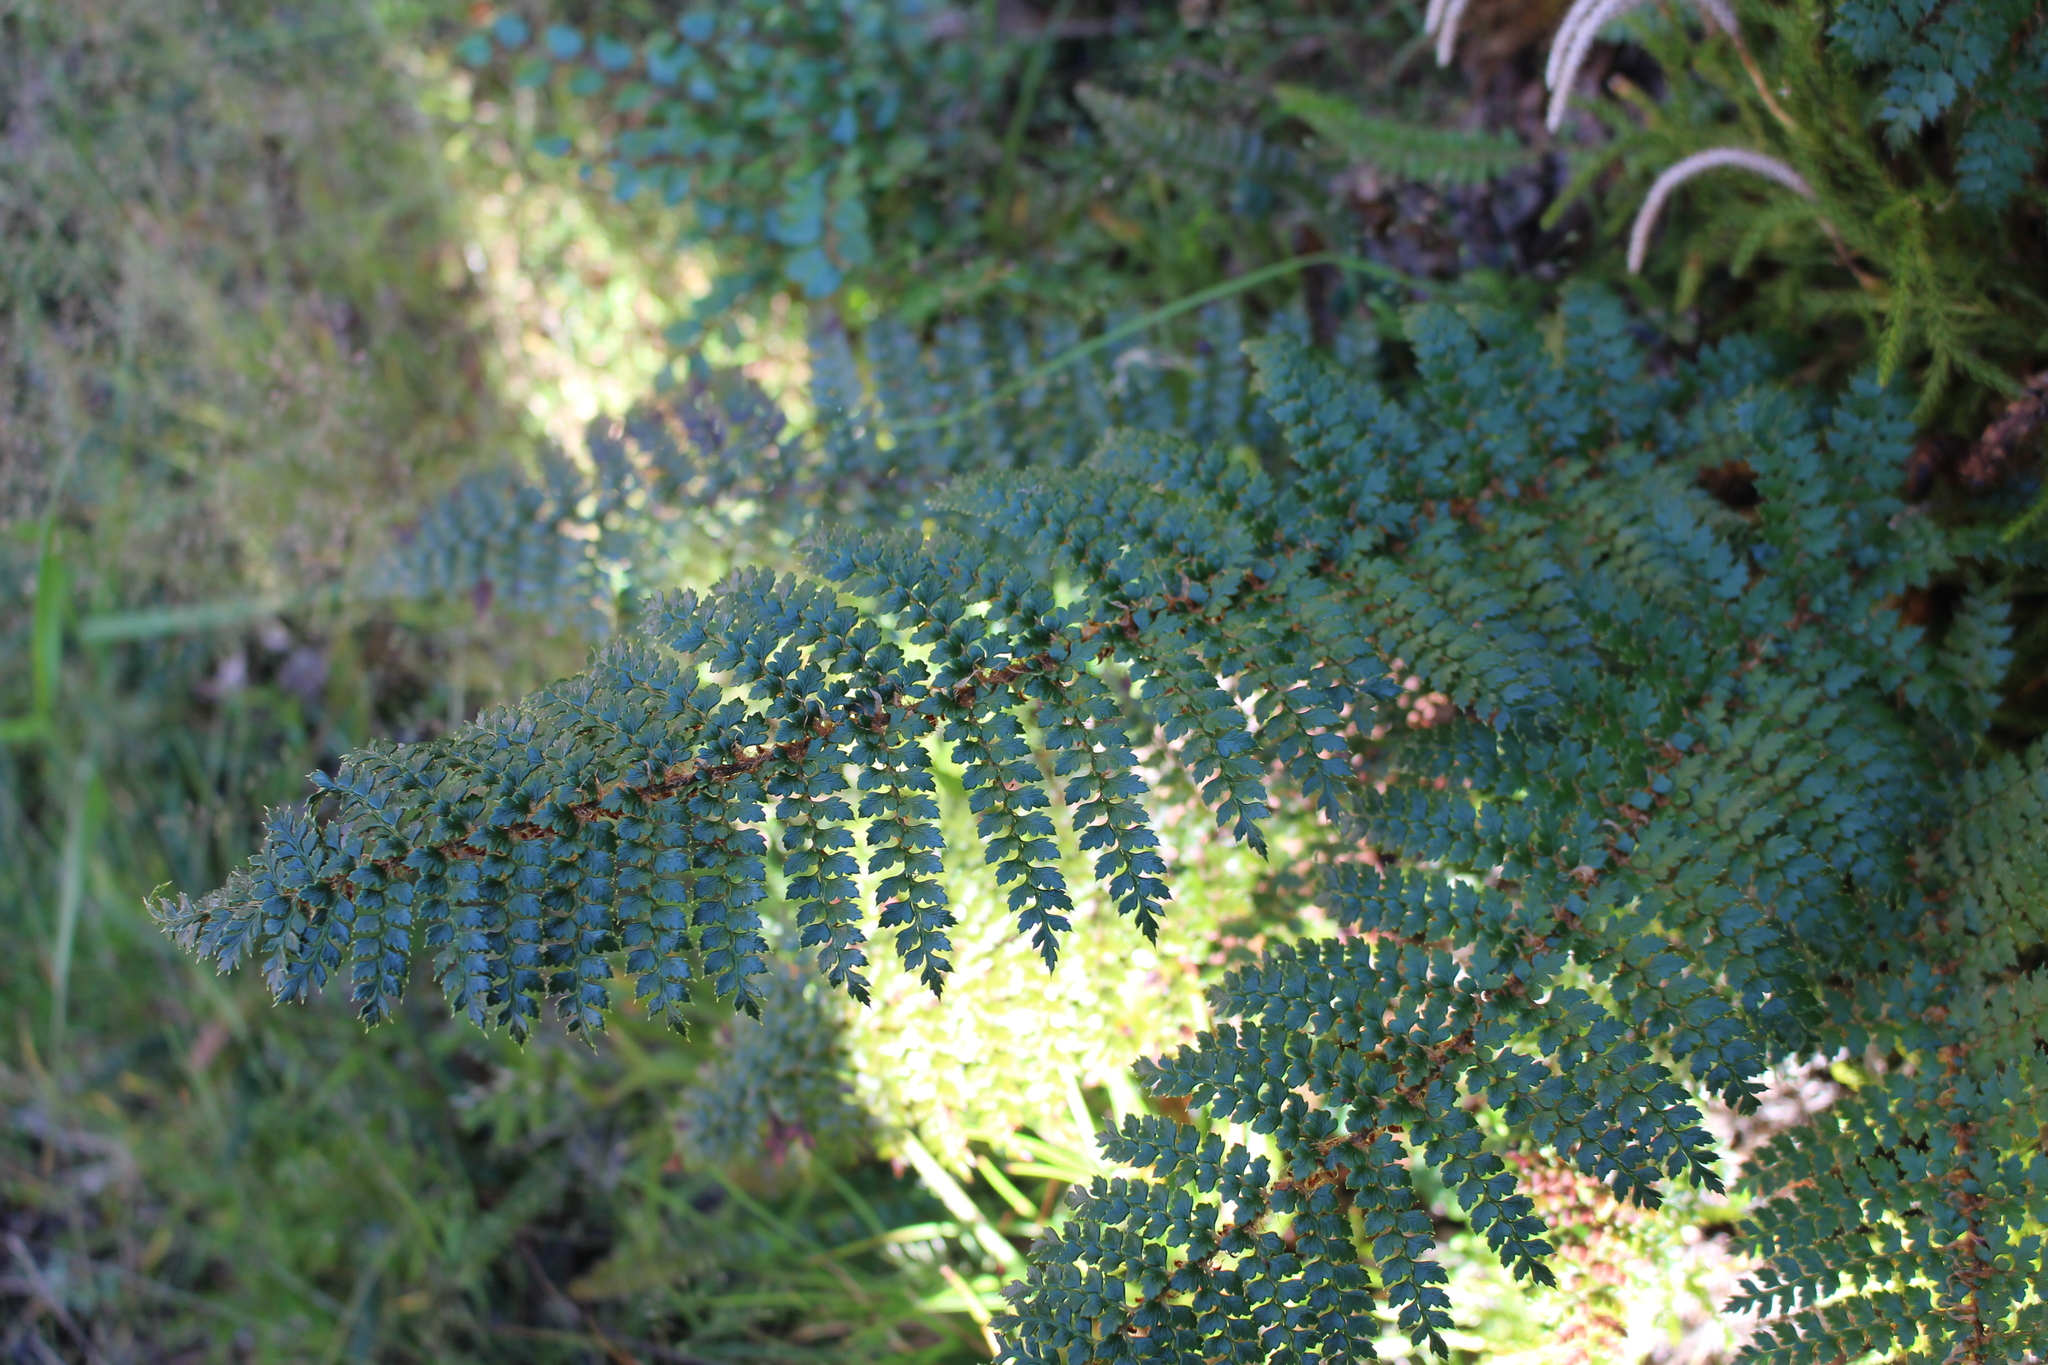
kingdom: Plantae
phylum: Tracheophyta
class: Polypodiopsida
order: Polypodiales
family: Dryopteridaceae
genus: Polystichum
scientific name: Polystichum vestitum
